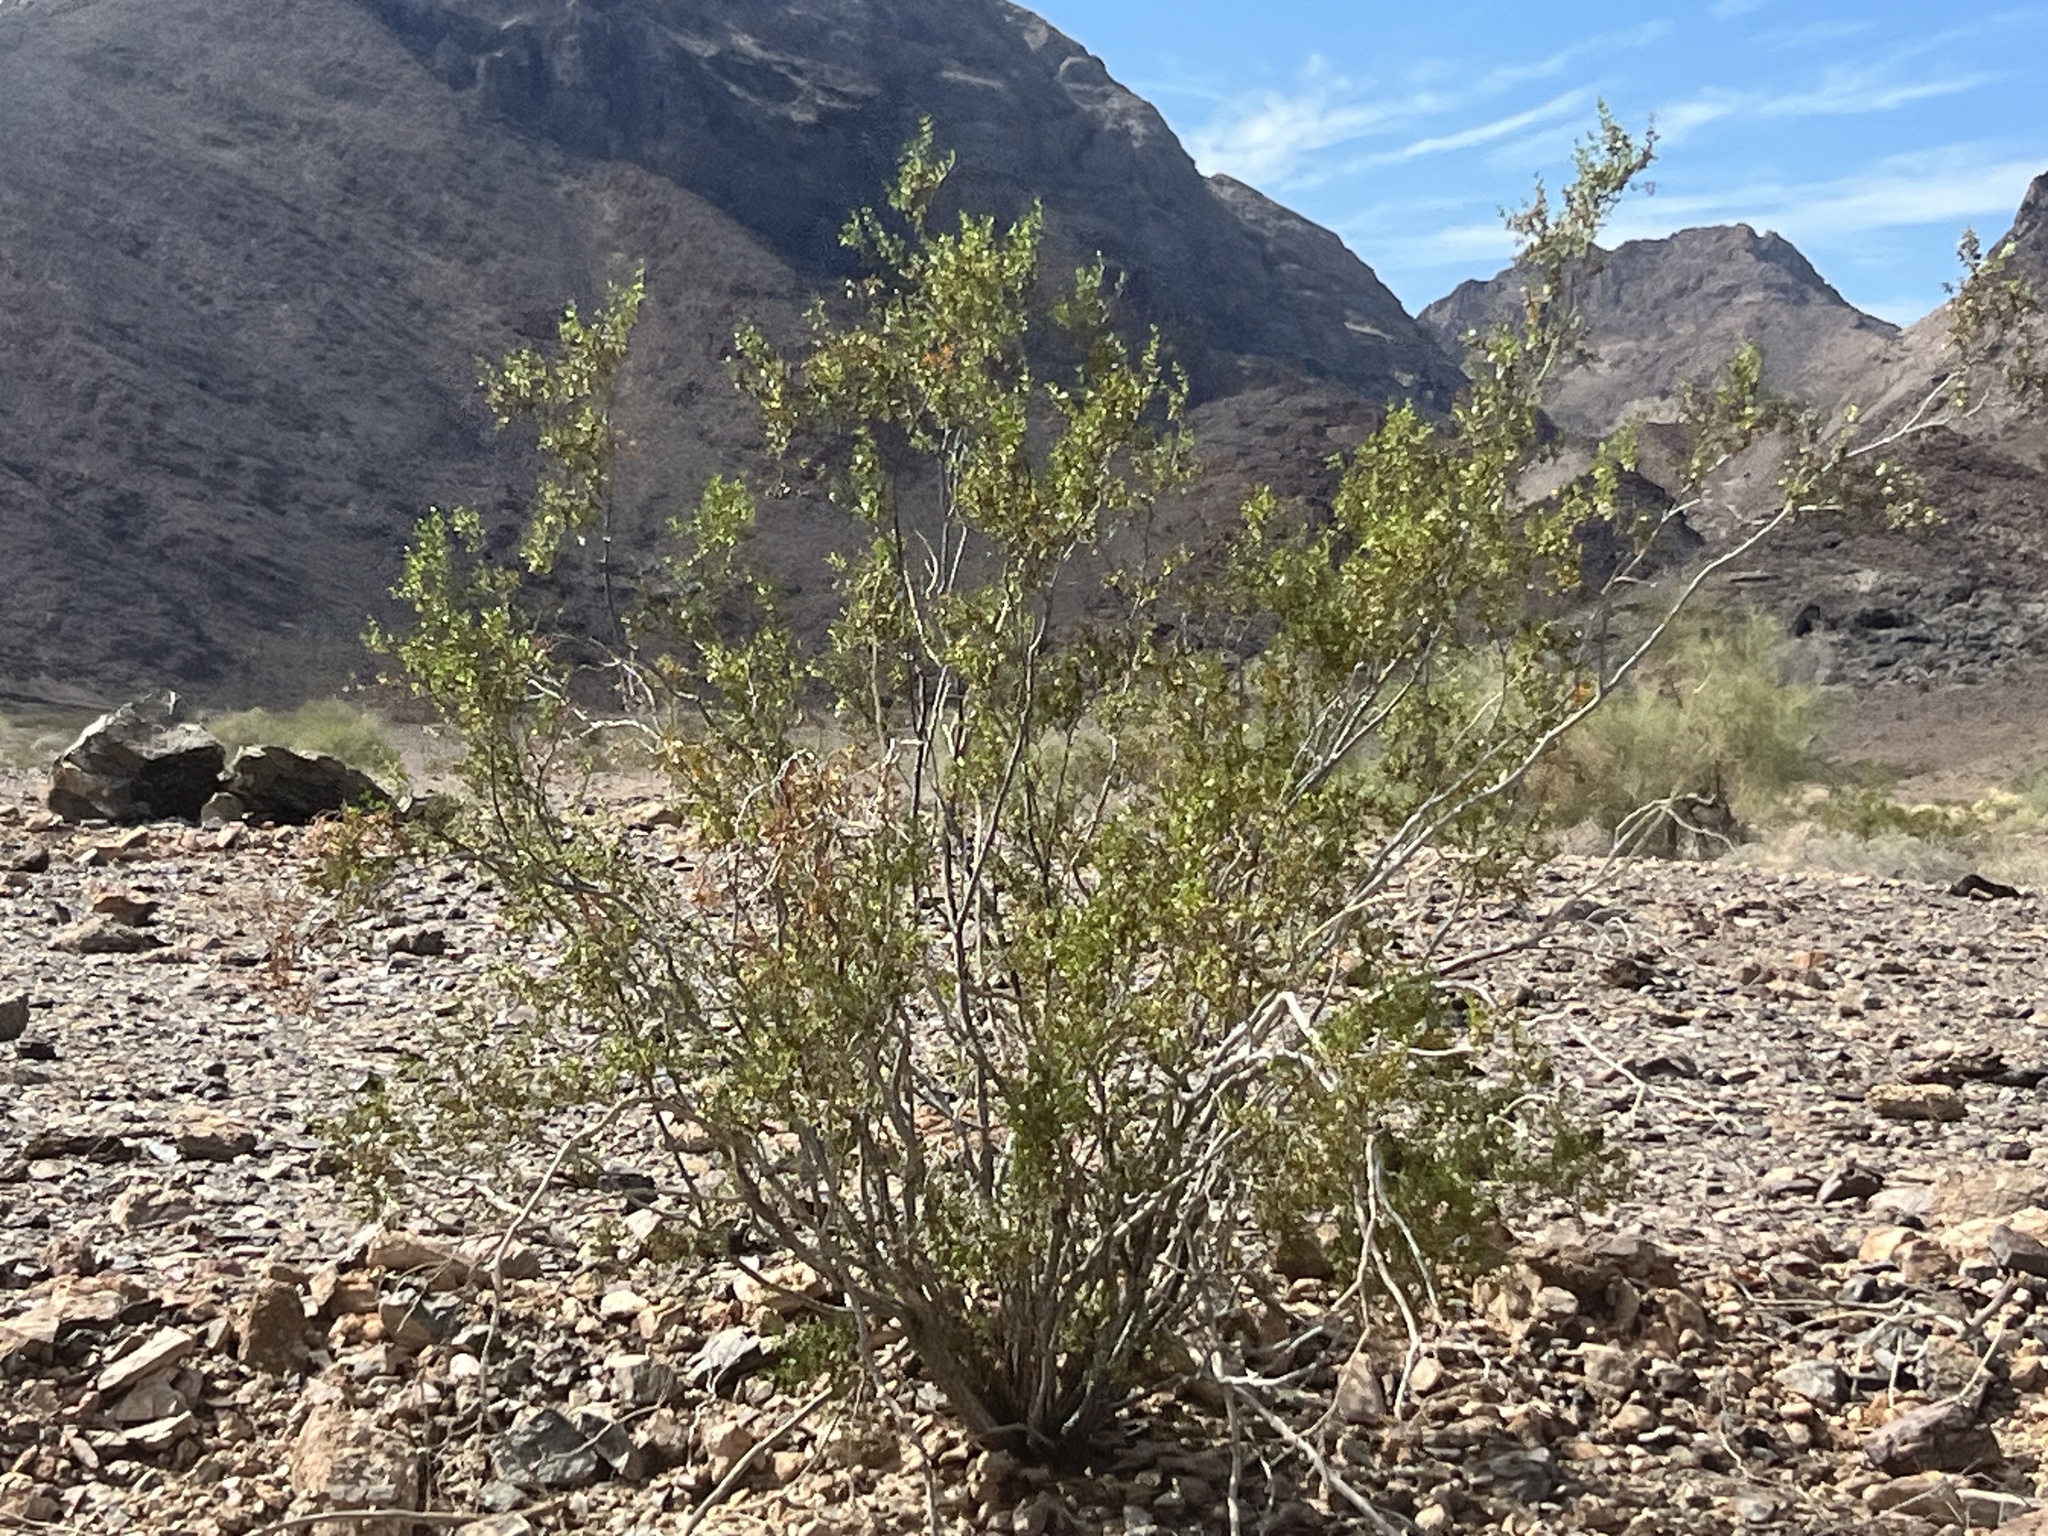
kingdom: Plantae
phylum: Tracheophyta
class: Magnoliopsida
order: Zygophyllales
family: Zygophyllaceae
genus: Larrea
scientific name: Larrea tridentata
